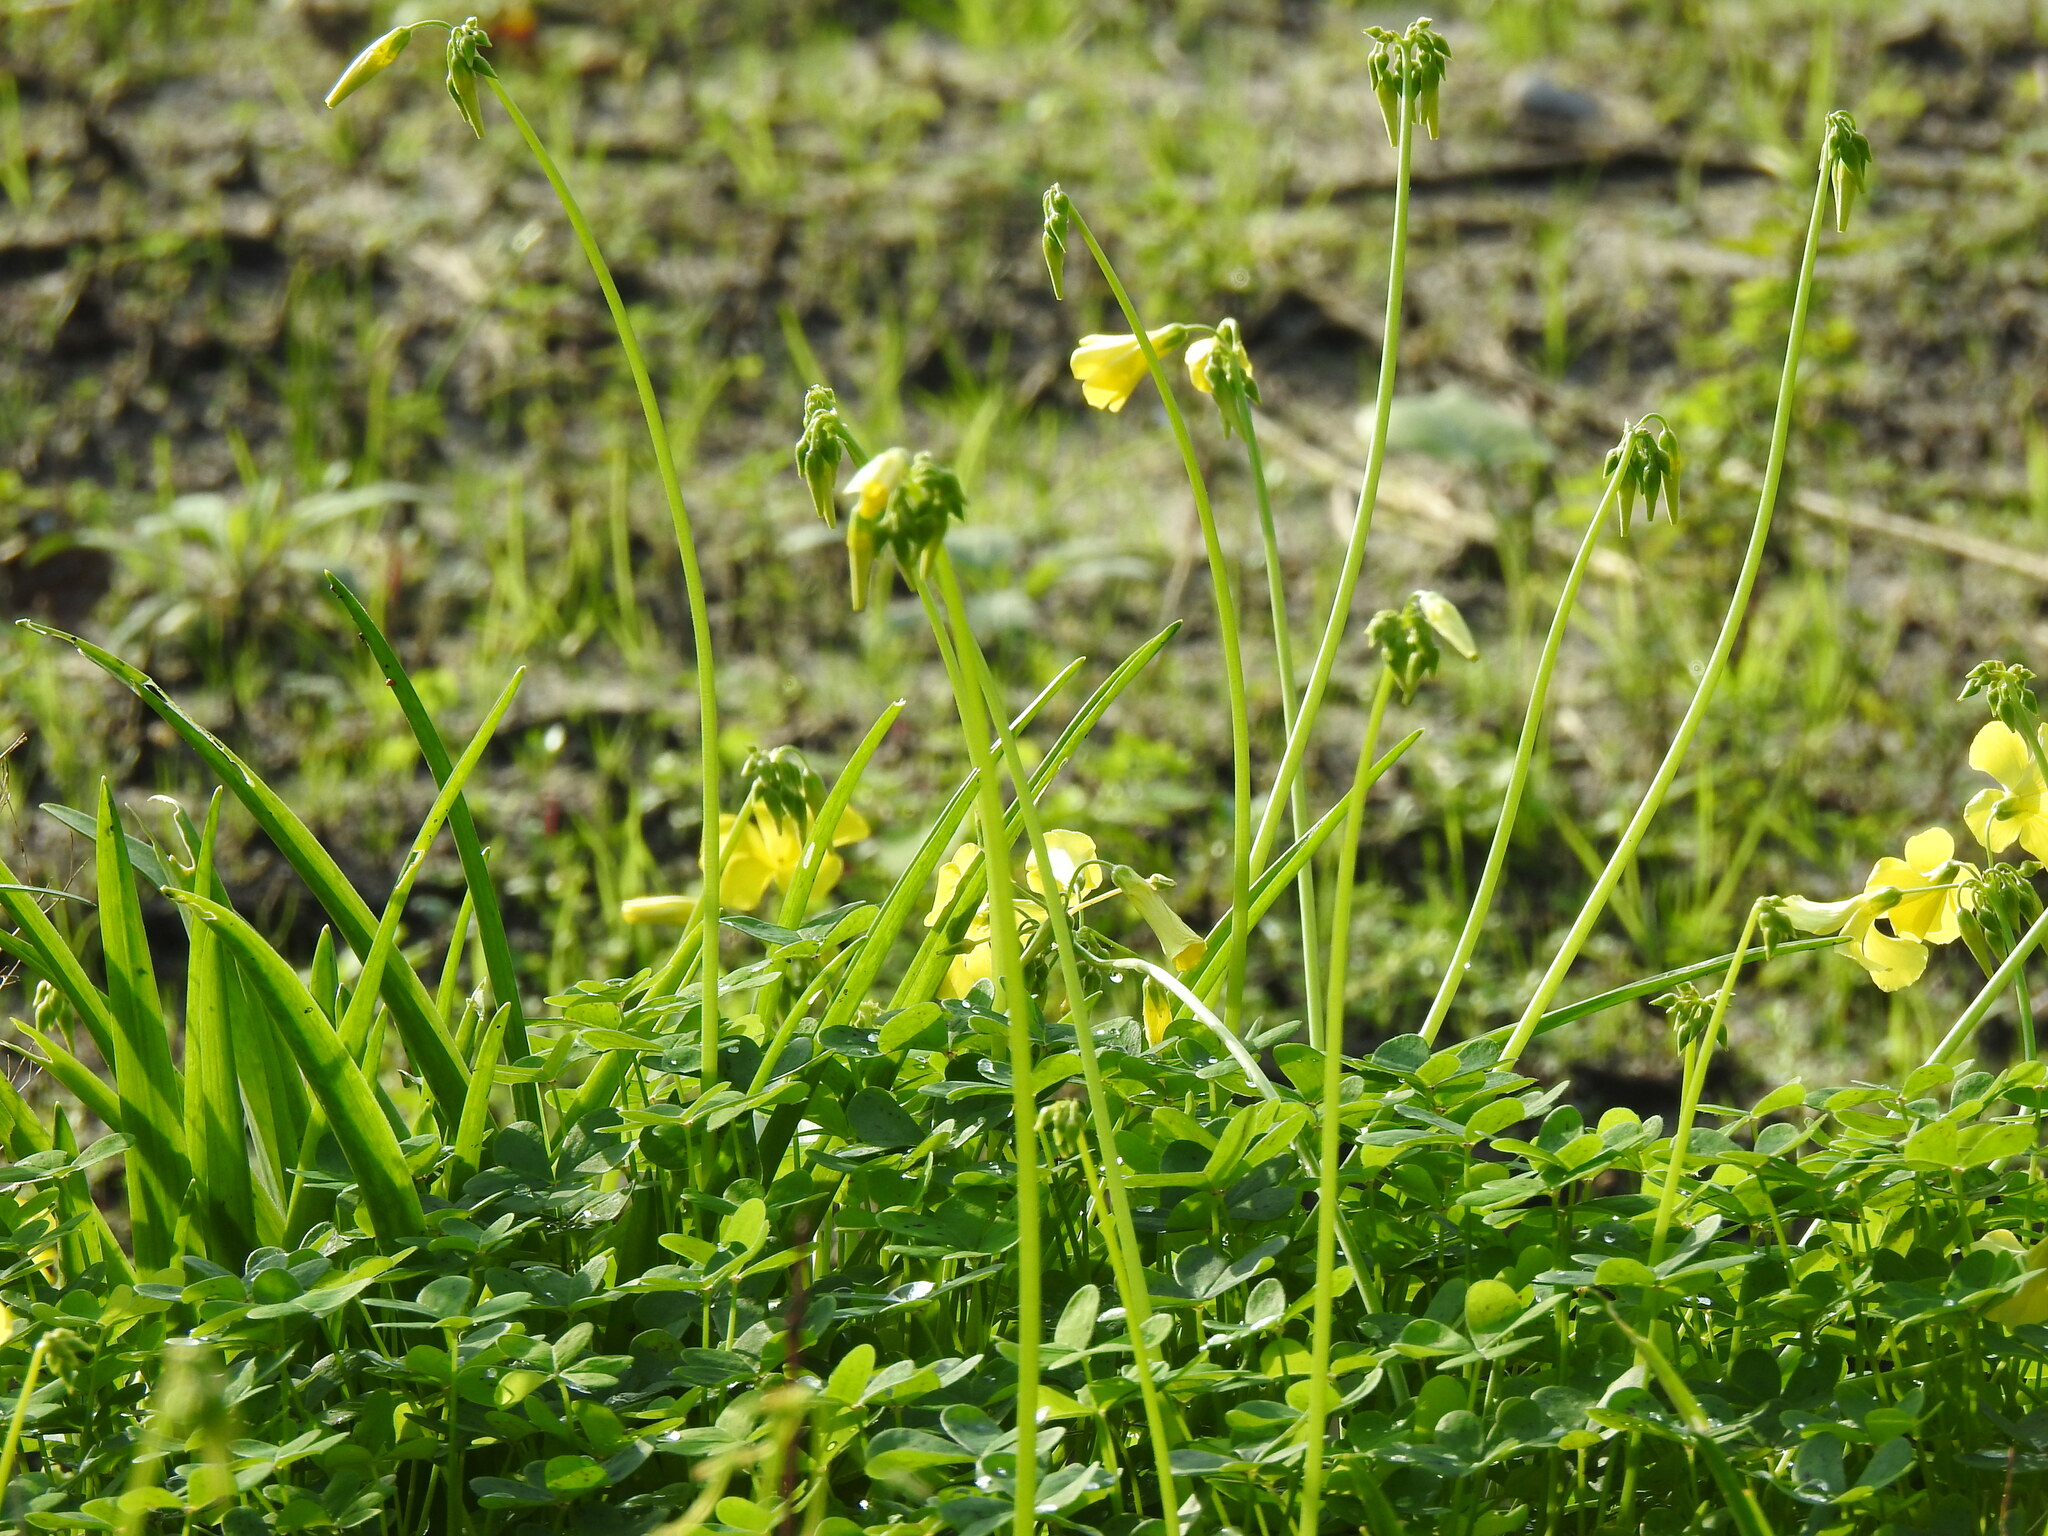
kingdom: Plantae
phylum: Tracheophyta
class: Magnoliopsida
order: Oxalidales
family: Oxalidaceae
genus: Oxalis
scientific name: Oxalis pes-caprae
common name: Bermuda-buttercup
